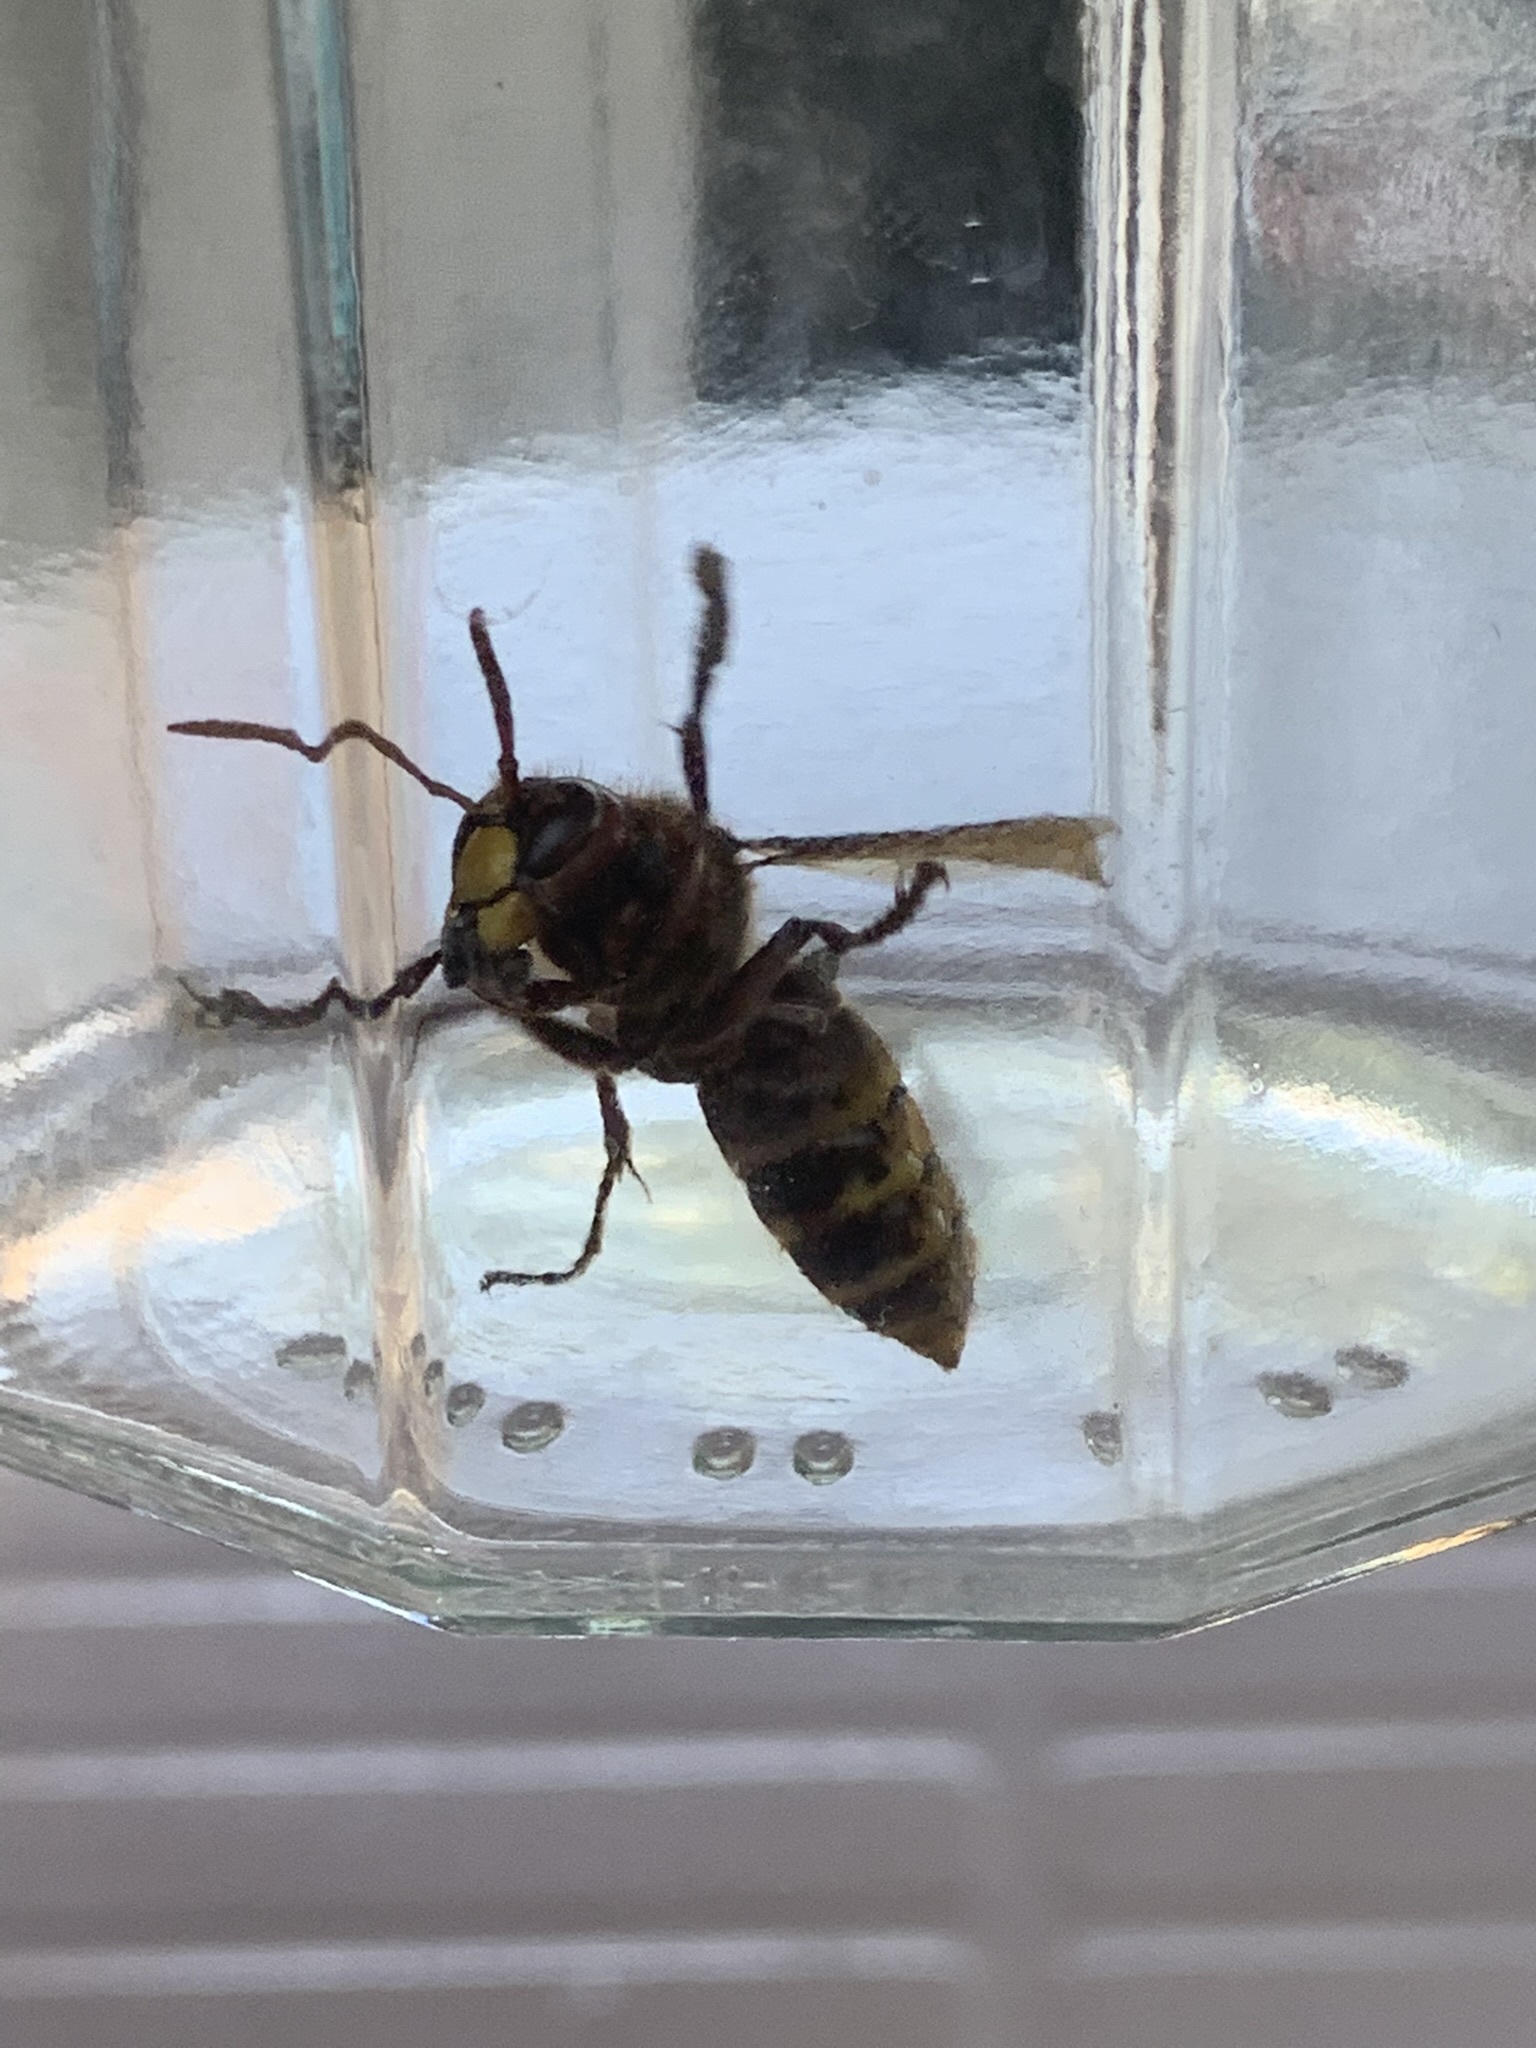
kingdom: Animalia
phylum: Arthropoda
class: Insecta
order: Hymenoptera
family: Vespidae
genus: Vespa
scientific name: Vespa crabro
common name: Hornet
